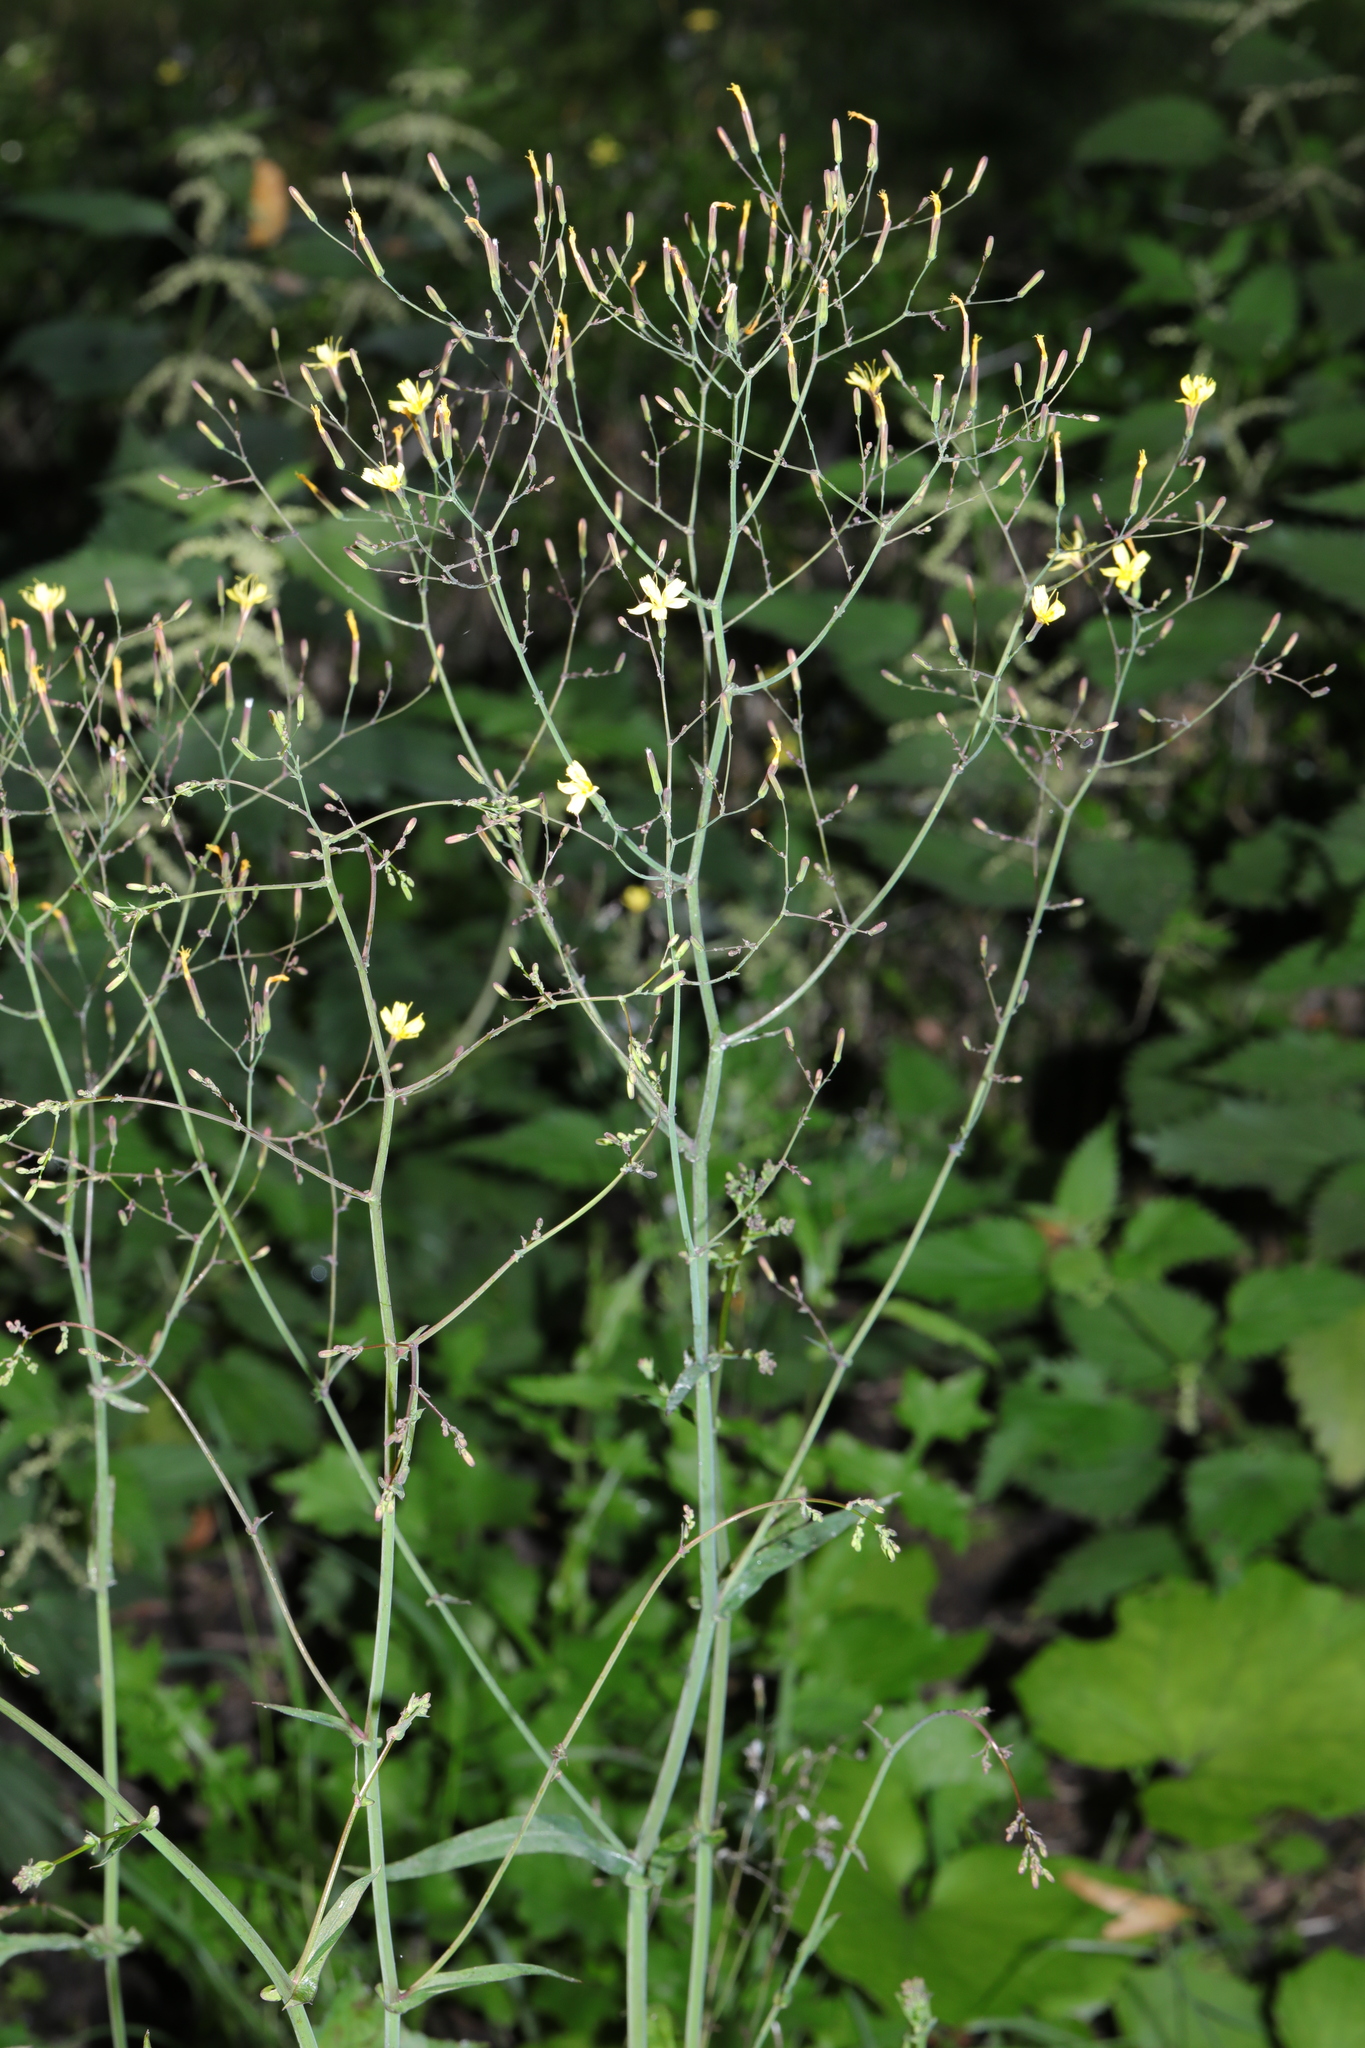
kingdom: Plantae
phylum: Tracheophyta
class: Magnoliopsida
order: Asterales
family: Asteraceae
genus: Mycelis
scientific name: Mycelis muralis
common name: Wall lettuce
